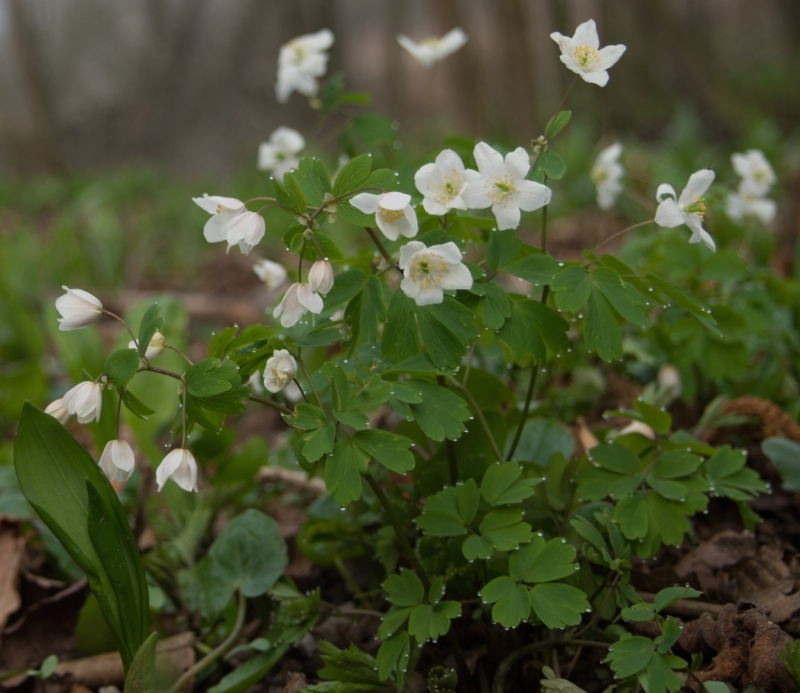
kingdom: Plantae
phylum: Tracheophyta
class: Magnoliopsida
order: Ranunculales
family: Ranunculaceae
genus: Isopyrum
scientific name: Isopyrum thalictroides
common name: Isopyrum
